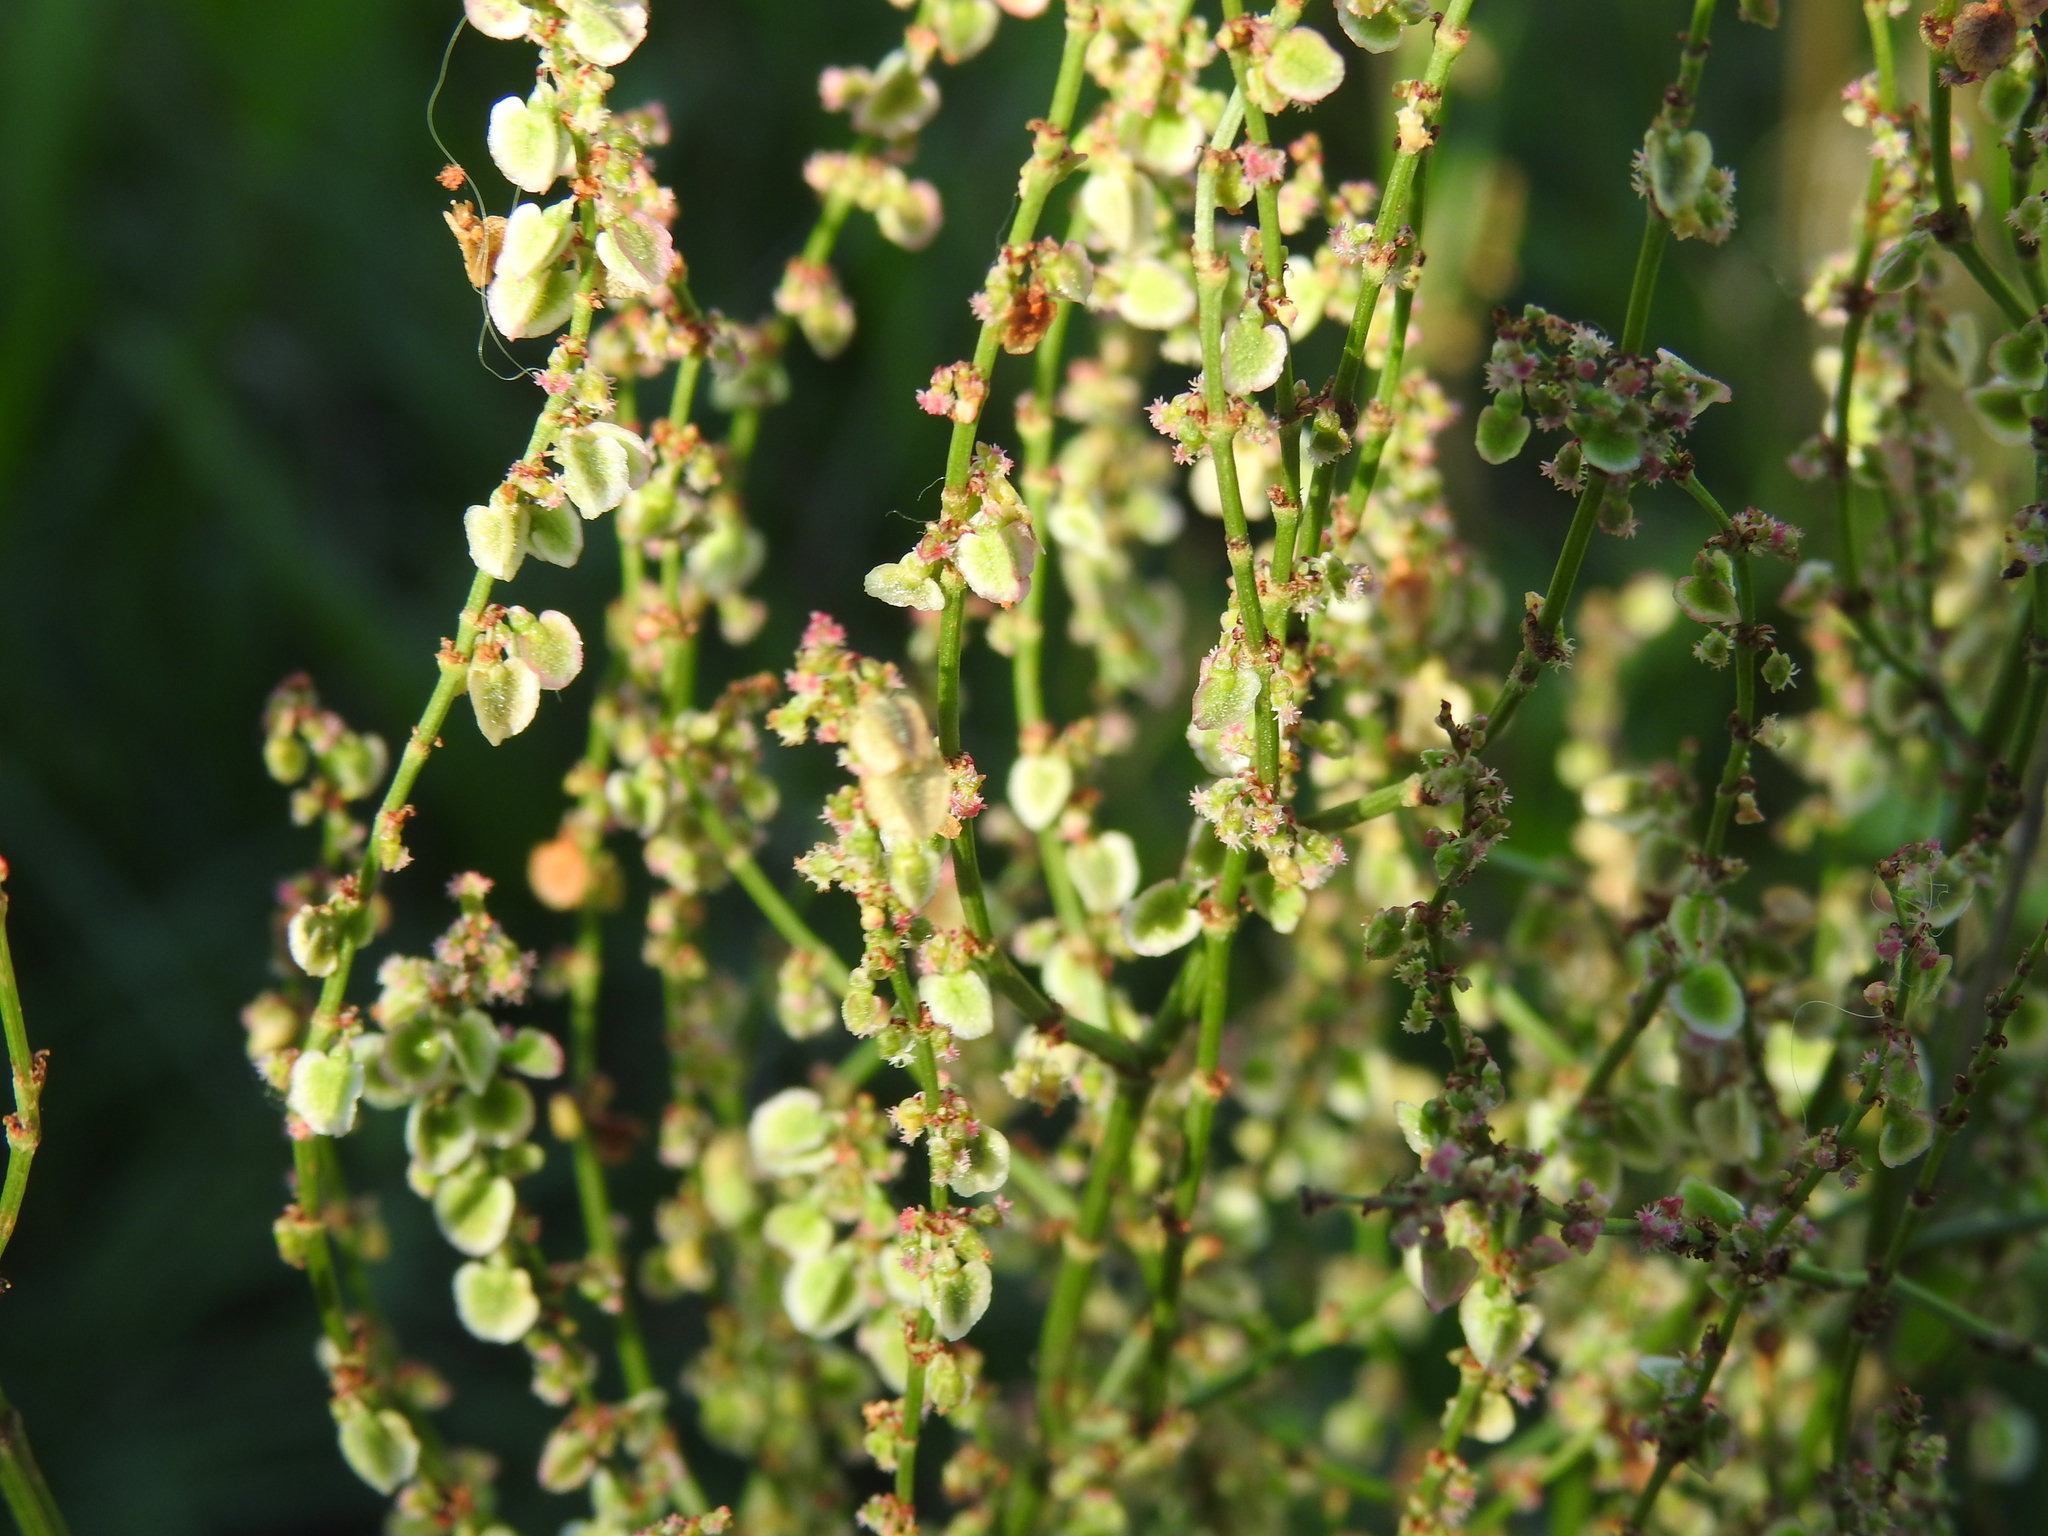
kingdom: Plantae
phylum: Tracheophyta
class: Magnoliopsida
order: Caryophyllales
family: Polygonaceae
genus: Rumex
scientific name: Rumex acetosa
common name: Garden sorrel
